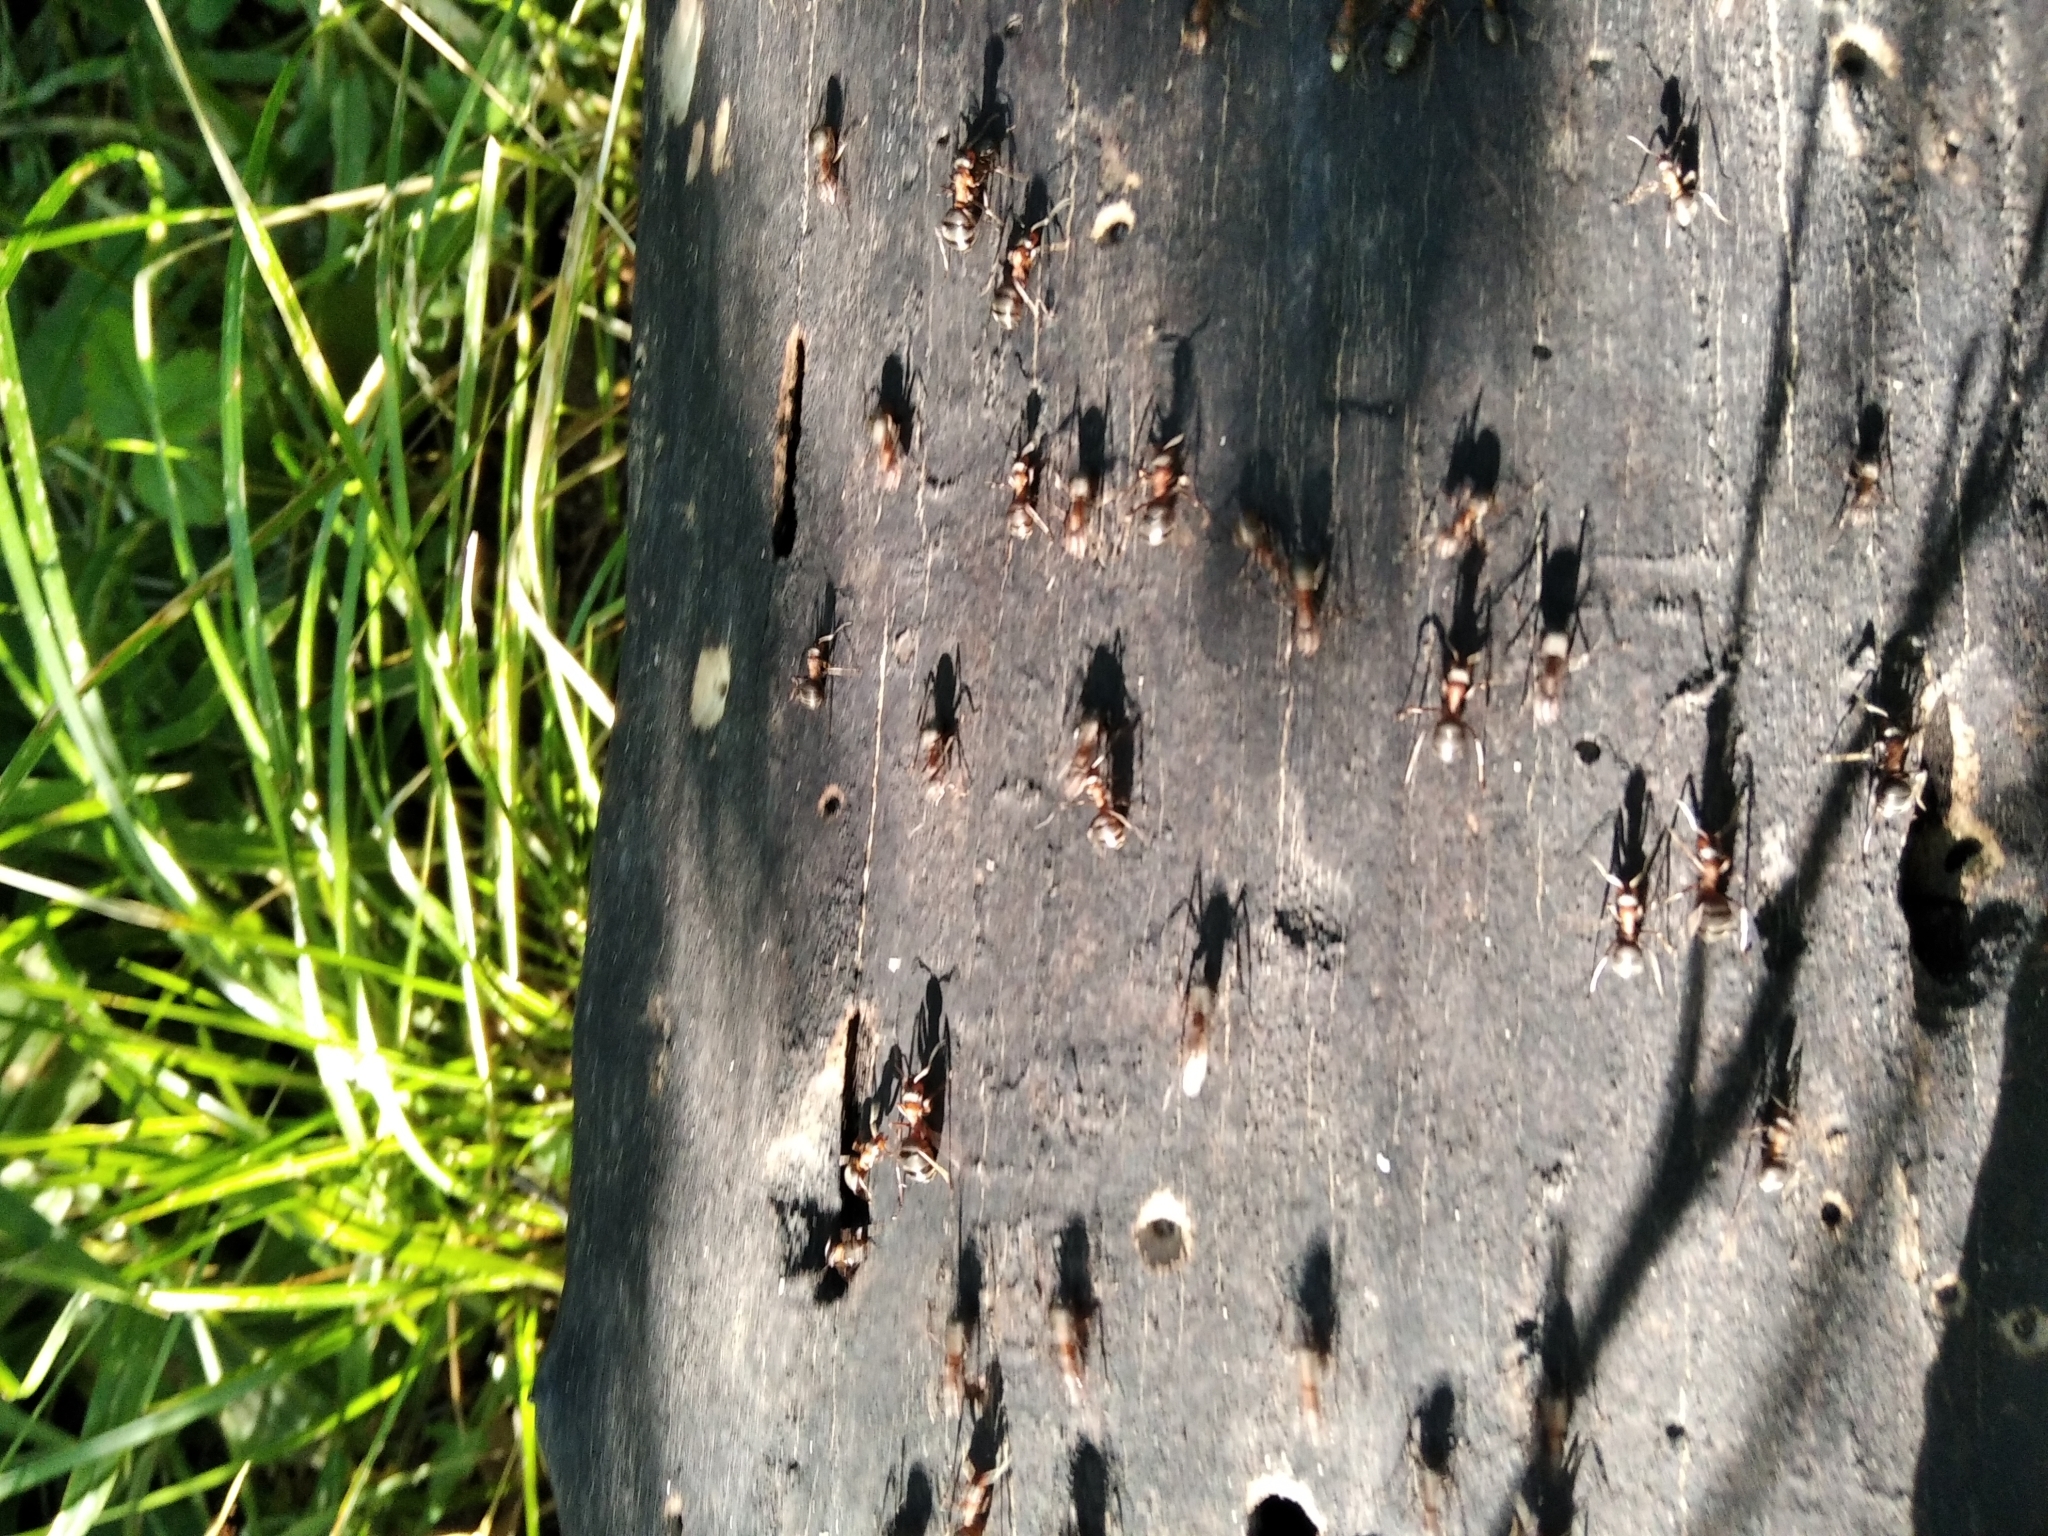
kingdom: Animalia
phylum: Arthropoda
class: Insecta
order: Hymenoptera
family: Formicidae
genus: Formica
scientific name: Formica
